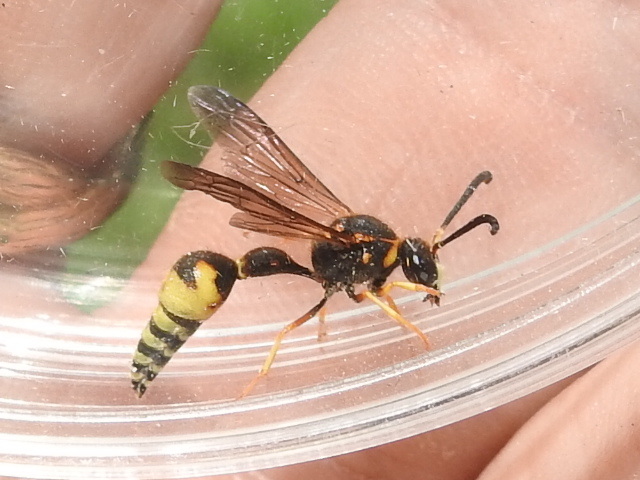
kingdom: Animalia
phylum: Arthropoda
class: Insecta
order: Hymenoptera
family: Vespidae
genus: Eumenes
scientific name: Eumenes crucifera
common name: Cross potter wasp
